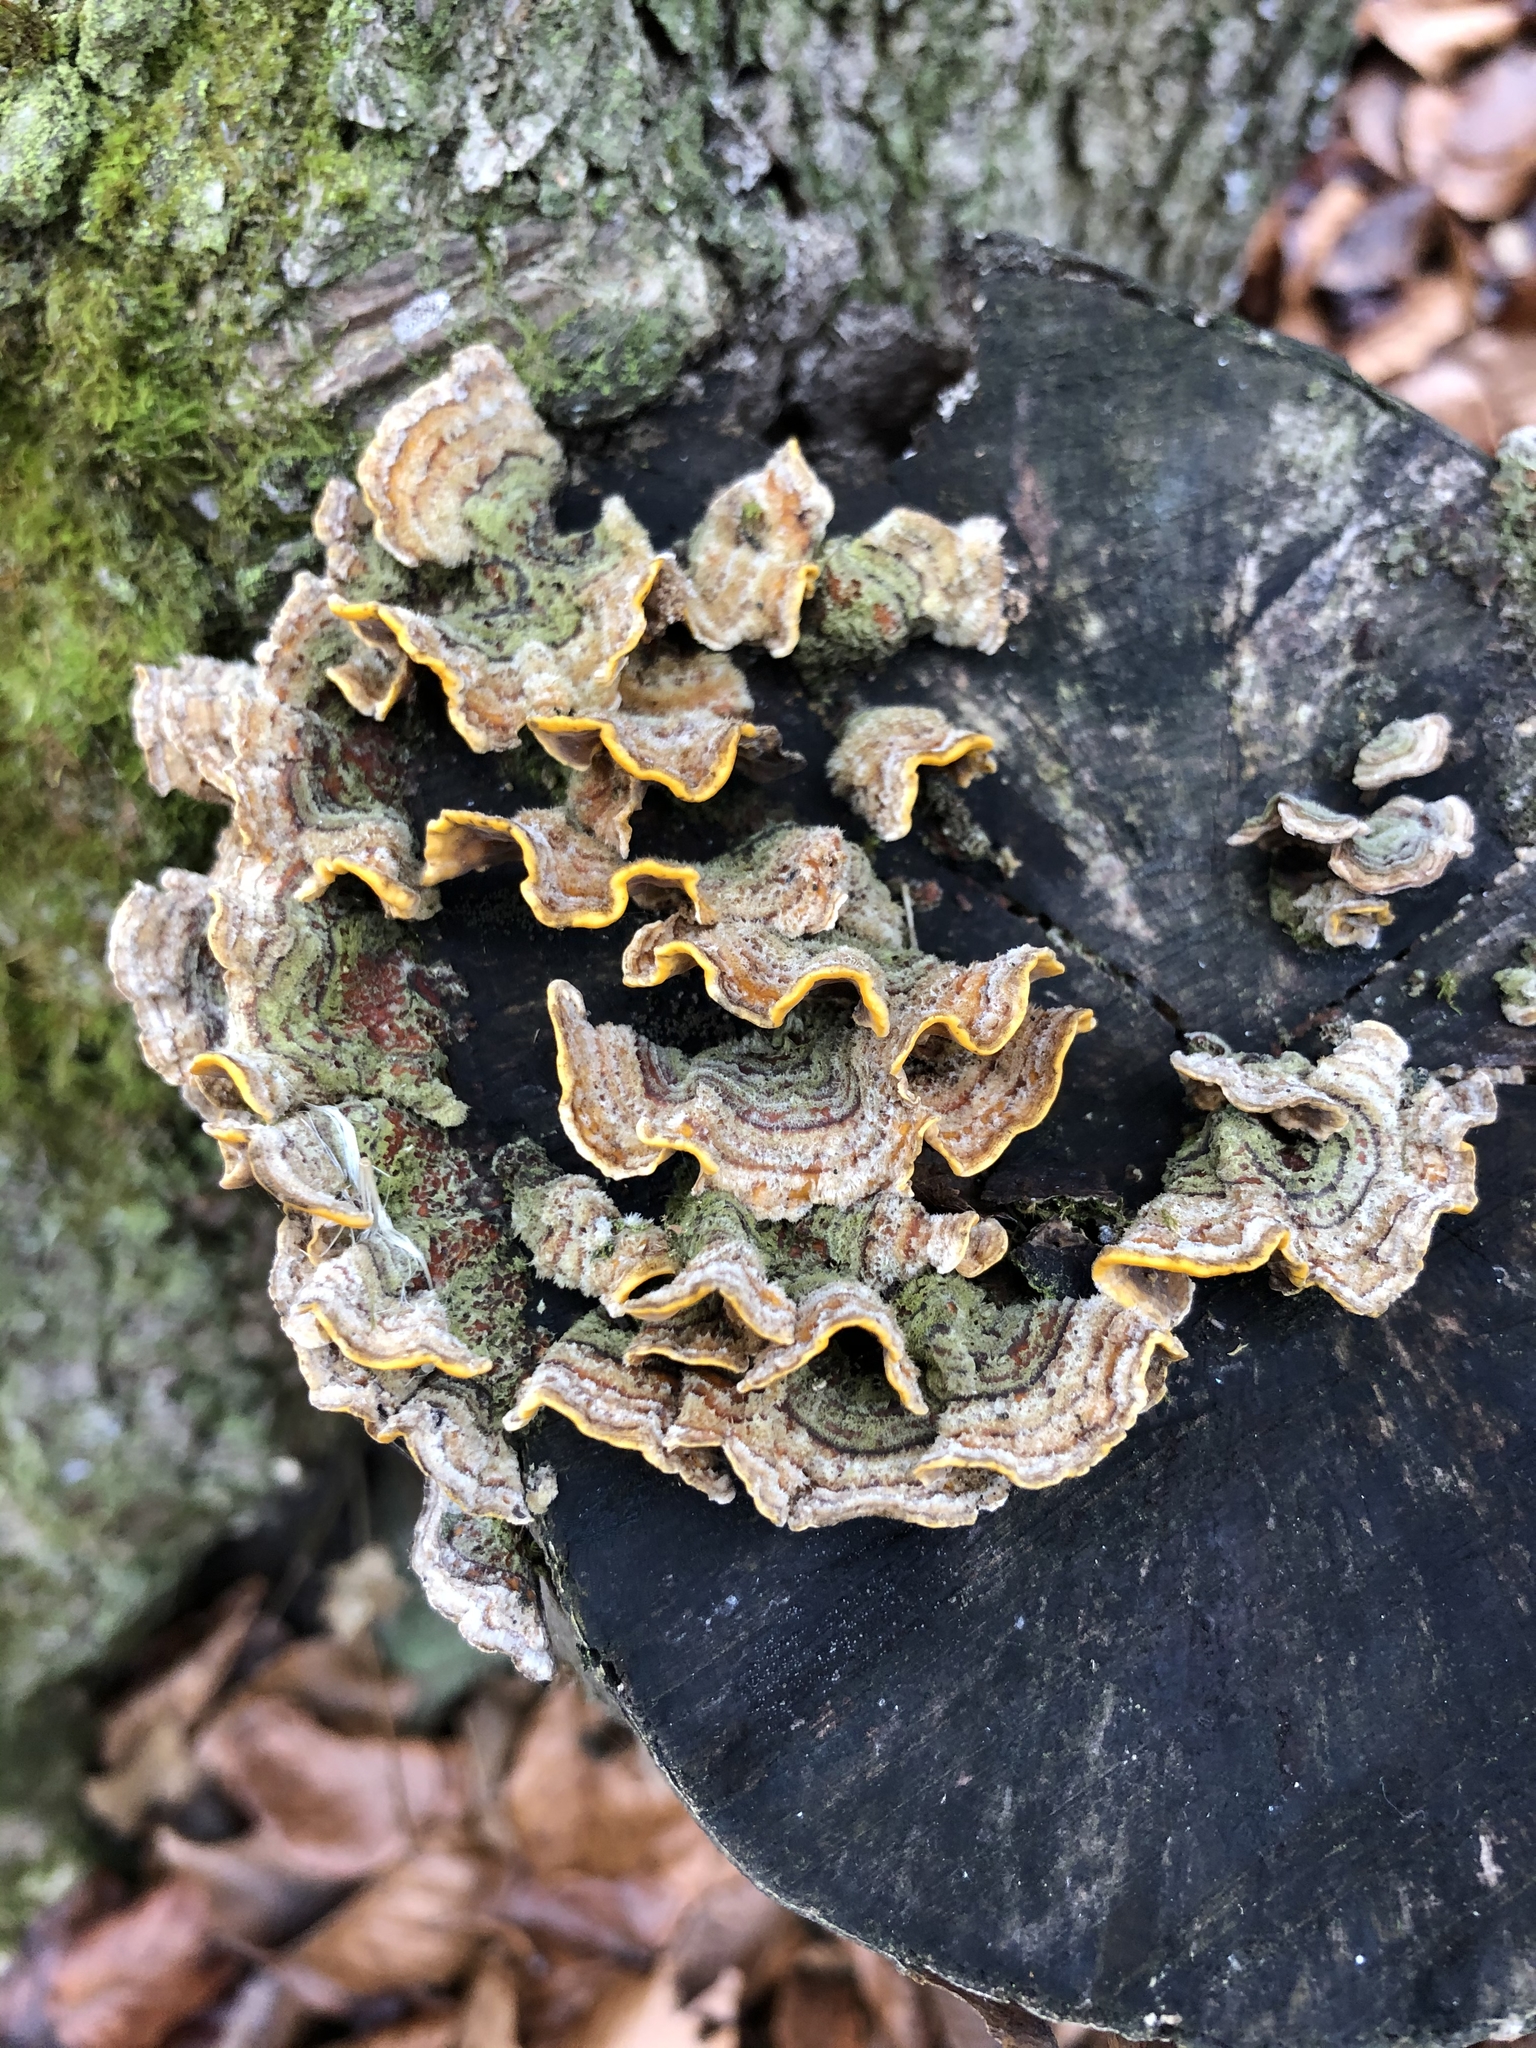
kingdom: Fungi
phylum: Basidiomycota
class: Agaricomycetes
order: Russulales
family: Stereaceae
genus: Stereum
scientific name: Stereum hirsutum
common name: Hairy curtain crust
